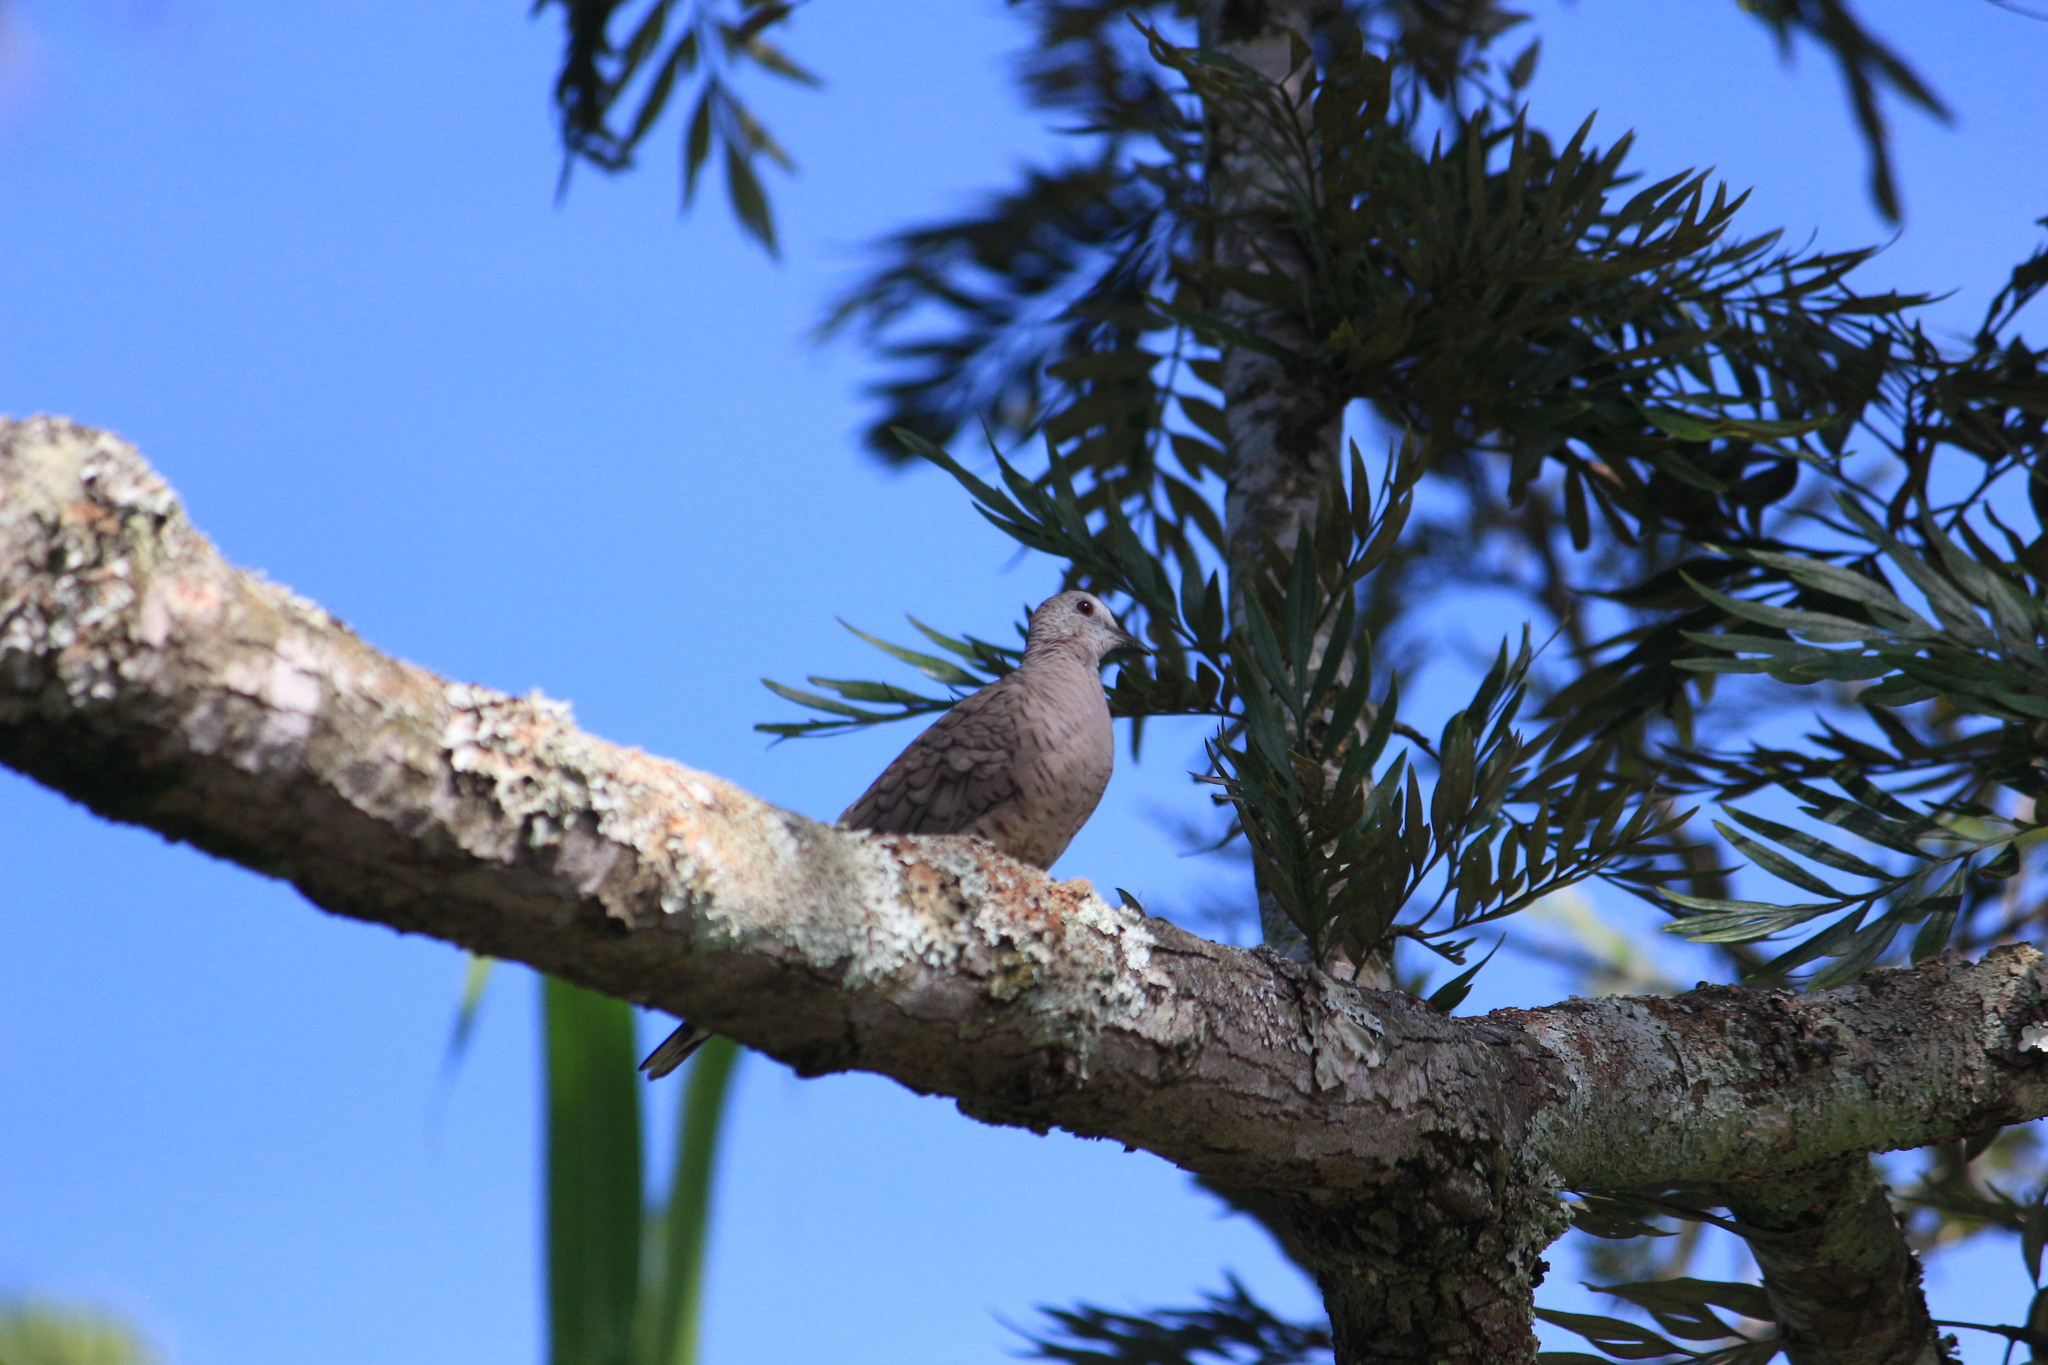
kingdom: Animalia
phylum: Chordata
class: Aves
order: Columbiformes
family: Columbidae
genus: Columbina
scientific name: Columbina inca
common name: Inca dove
